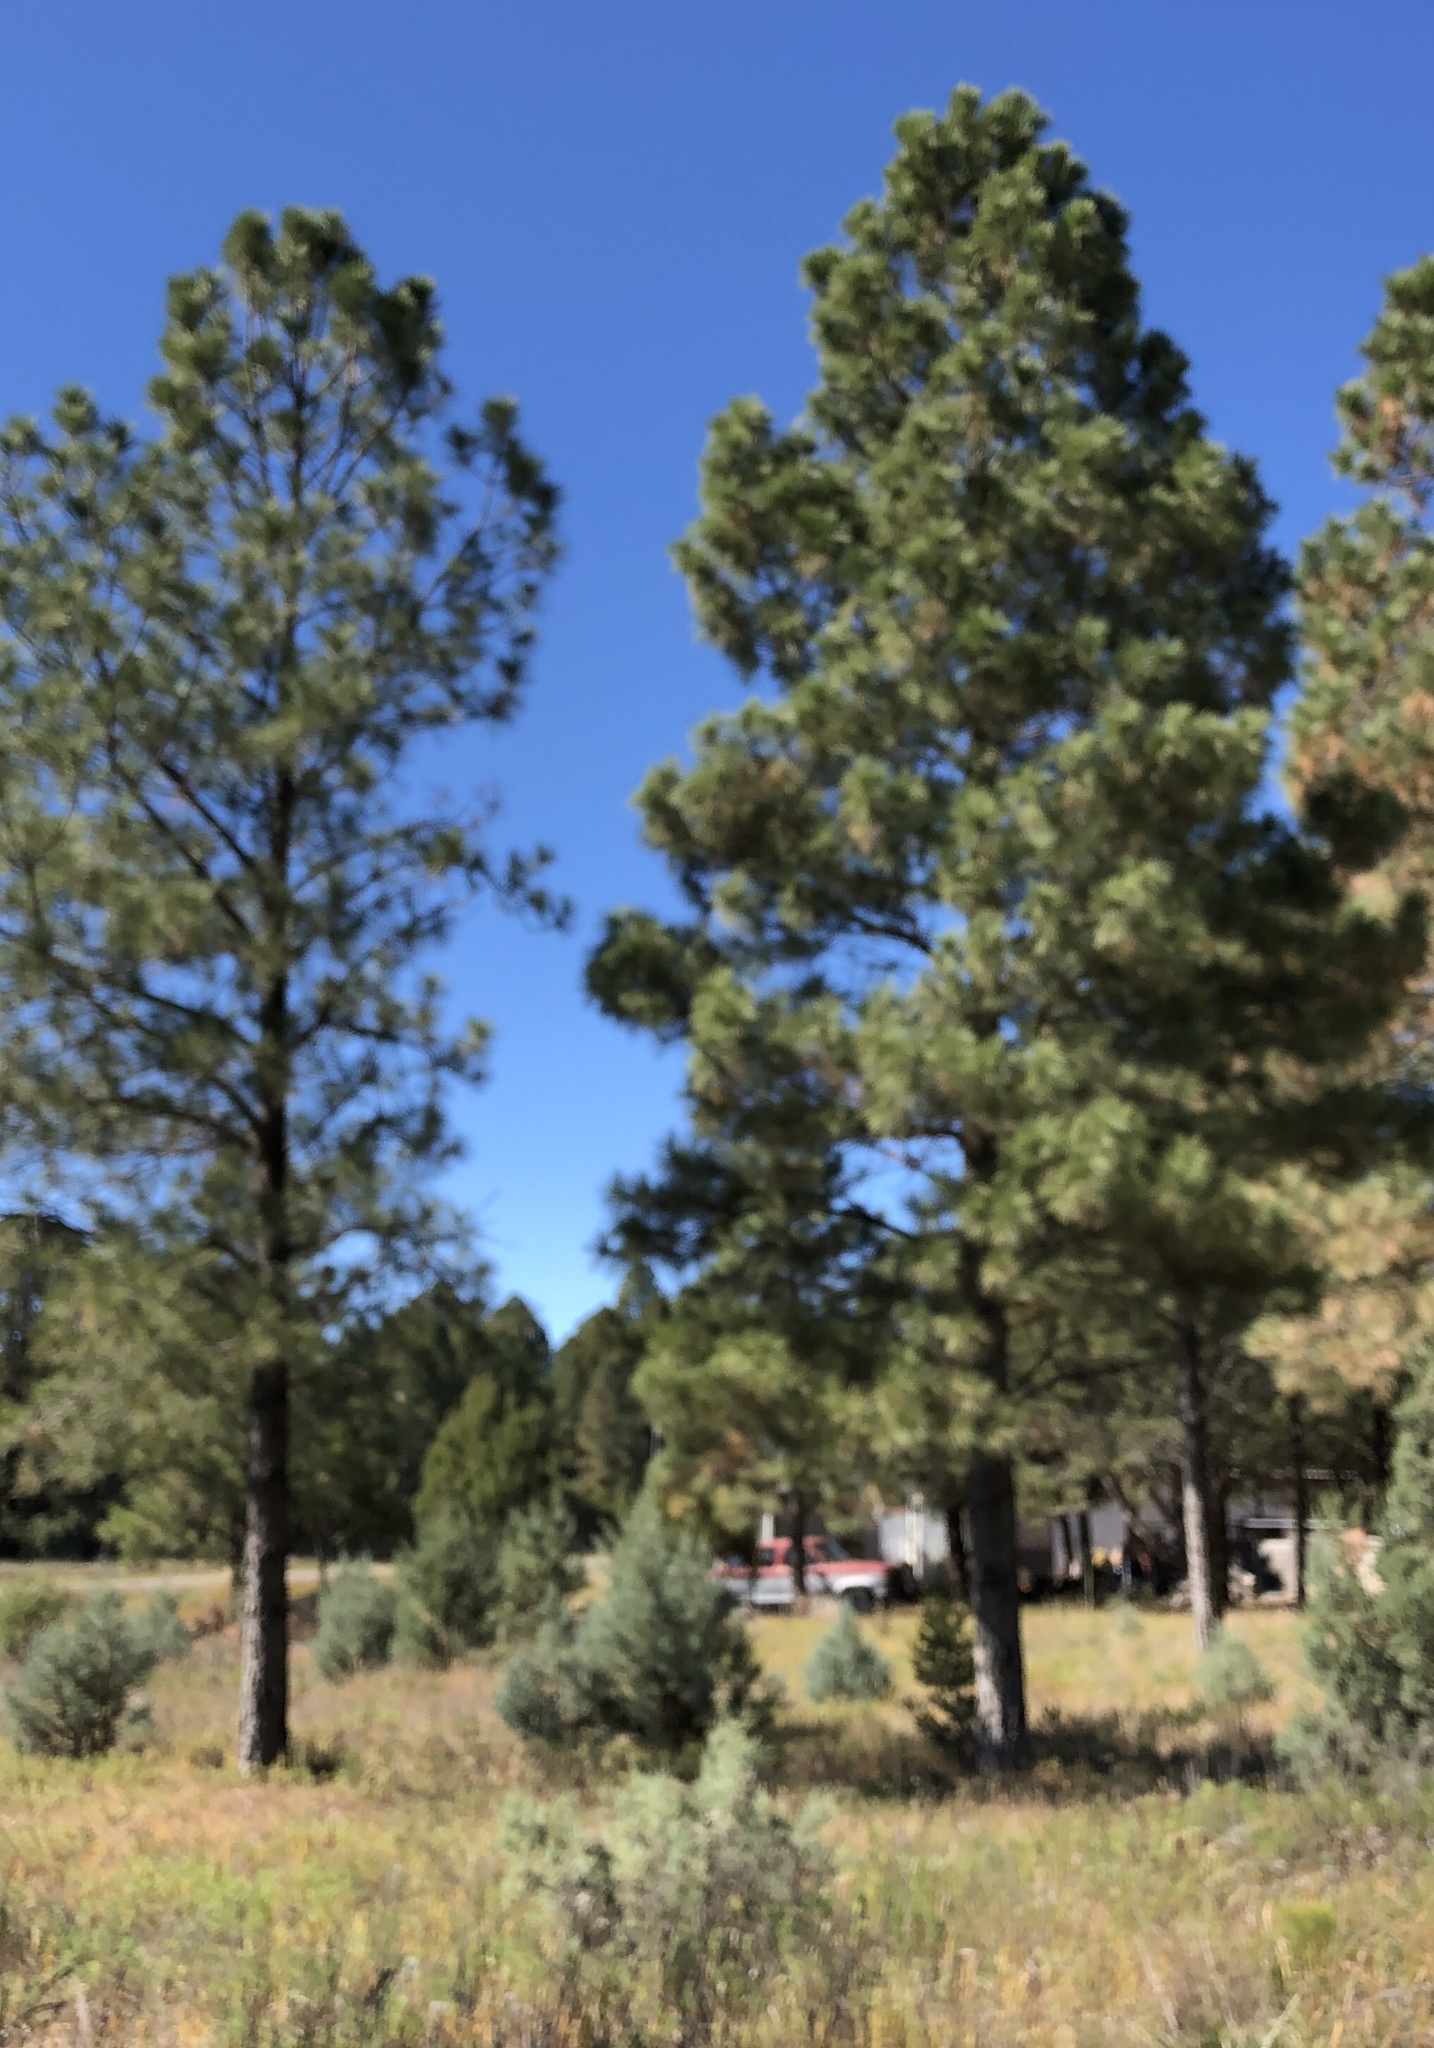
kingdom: Plantae
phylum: Tracheophyta
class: Pinopsida
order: Pinales
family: Pinaceae
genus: Pinus
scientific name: Pinus ponderosa
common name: Western yellow-pine
